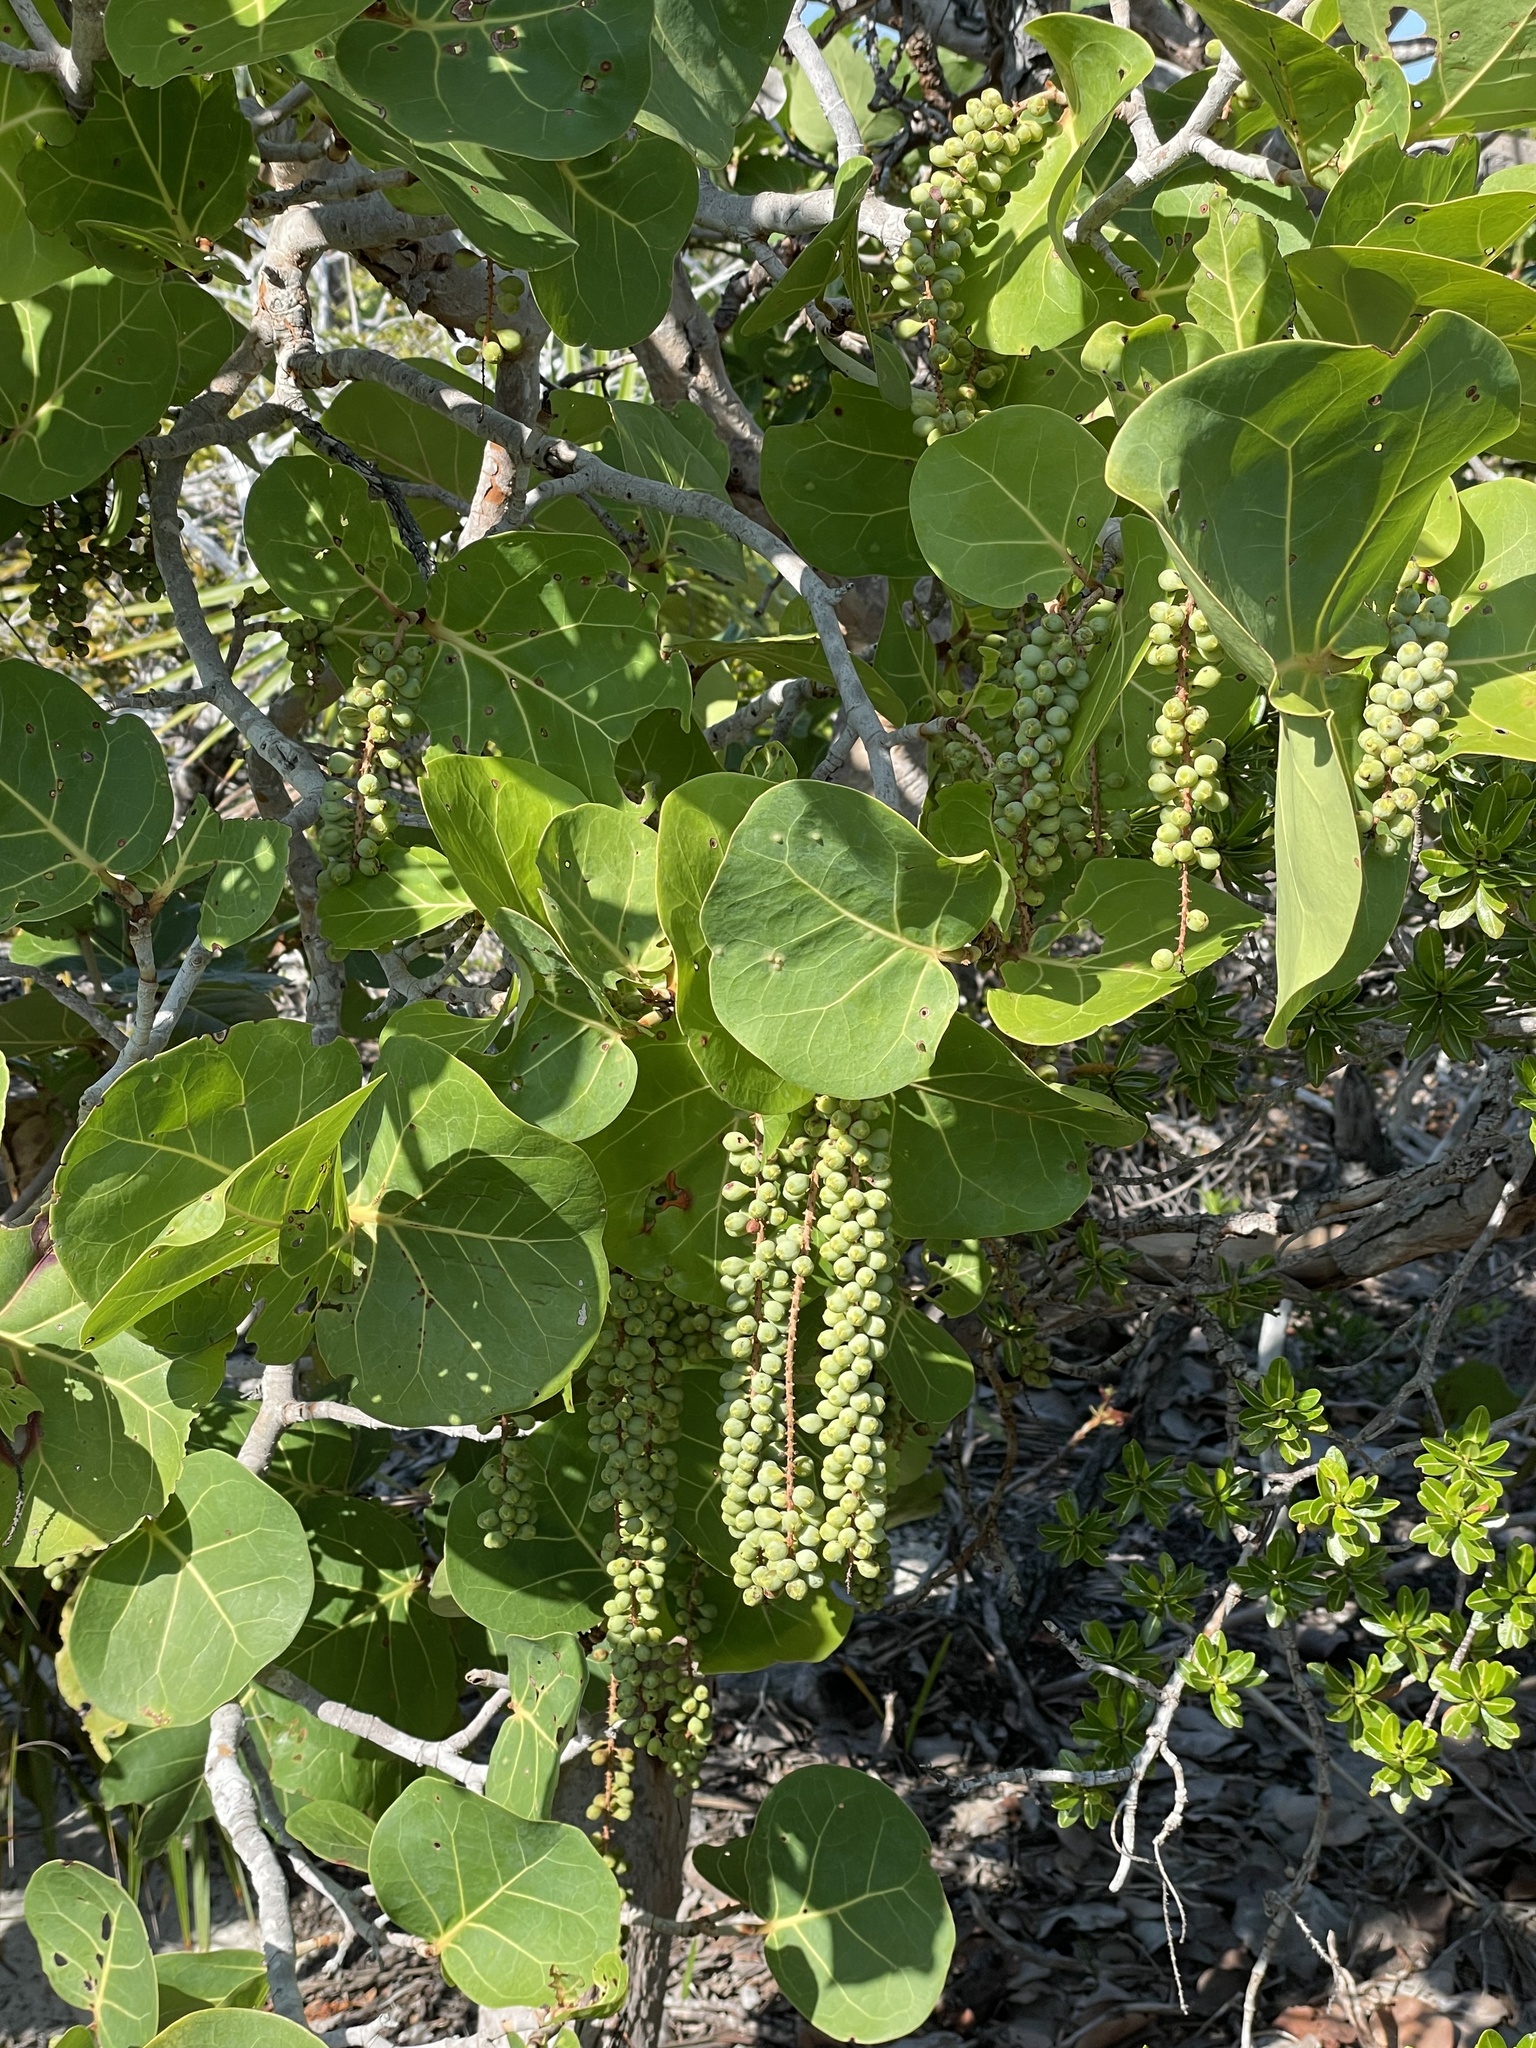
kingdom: Plantae
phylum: Tracheophyta
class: Magnoliopsida
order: Caryophyllales
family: Polygonaceae
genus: Coccoloba
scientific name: Coccoloba uvifera
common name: Seagrape
